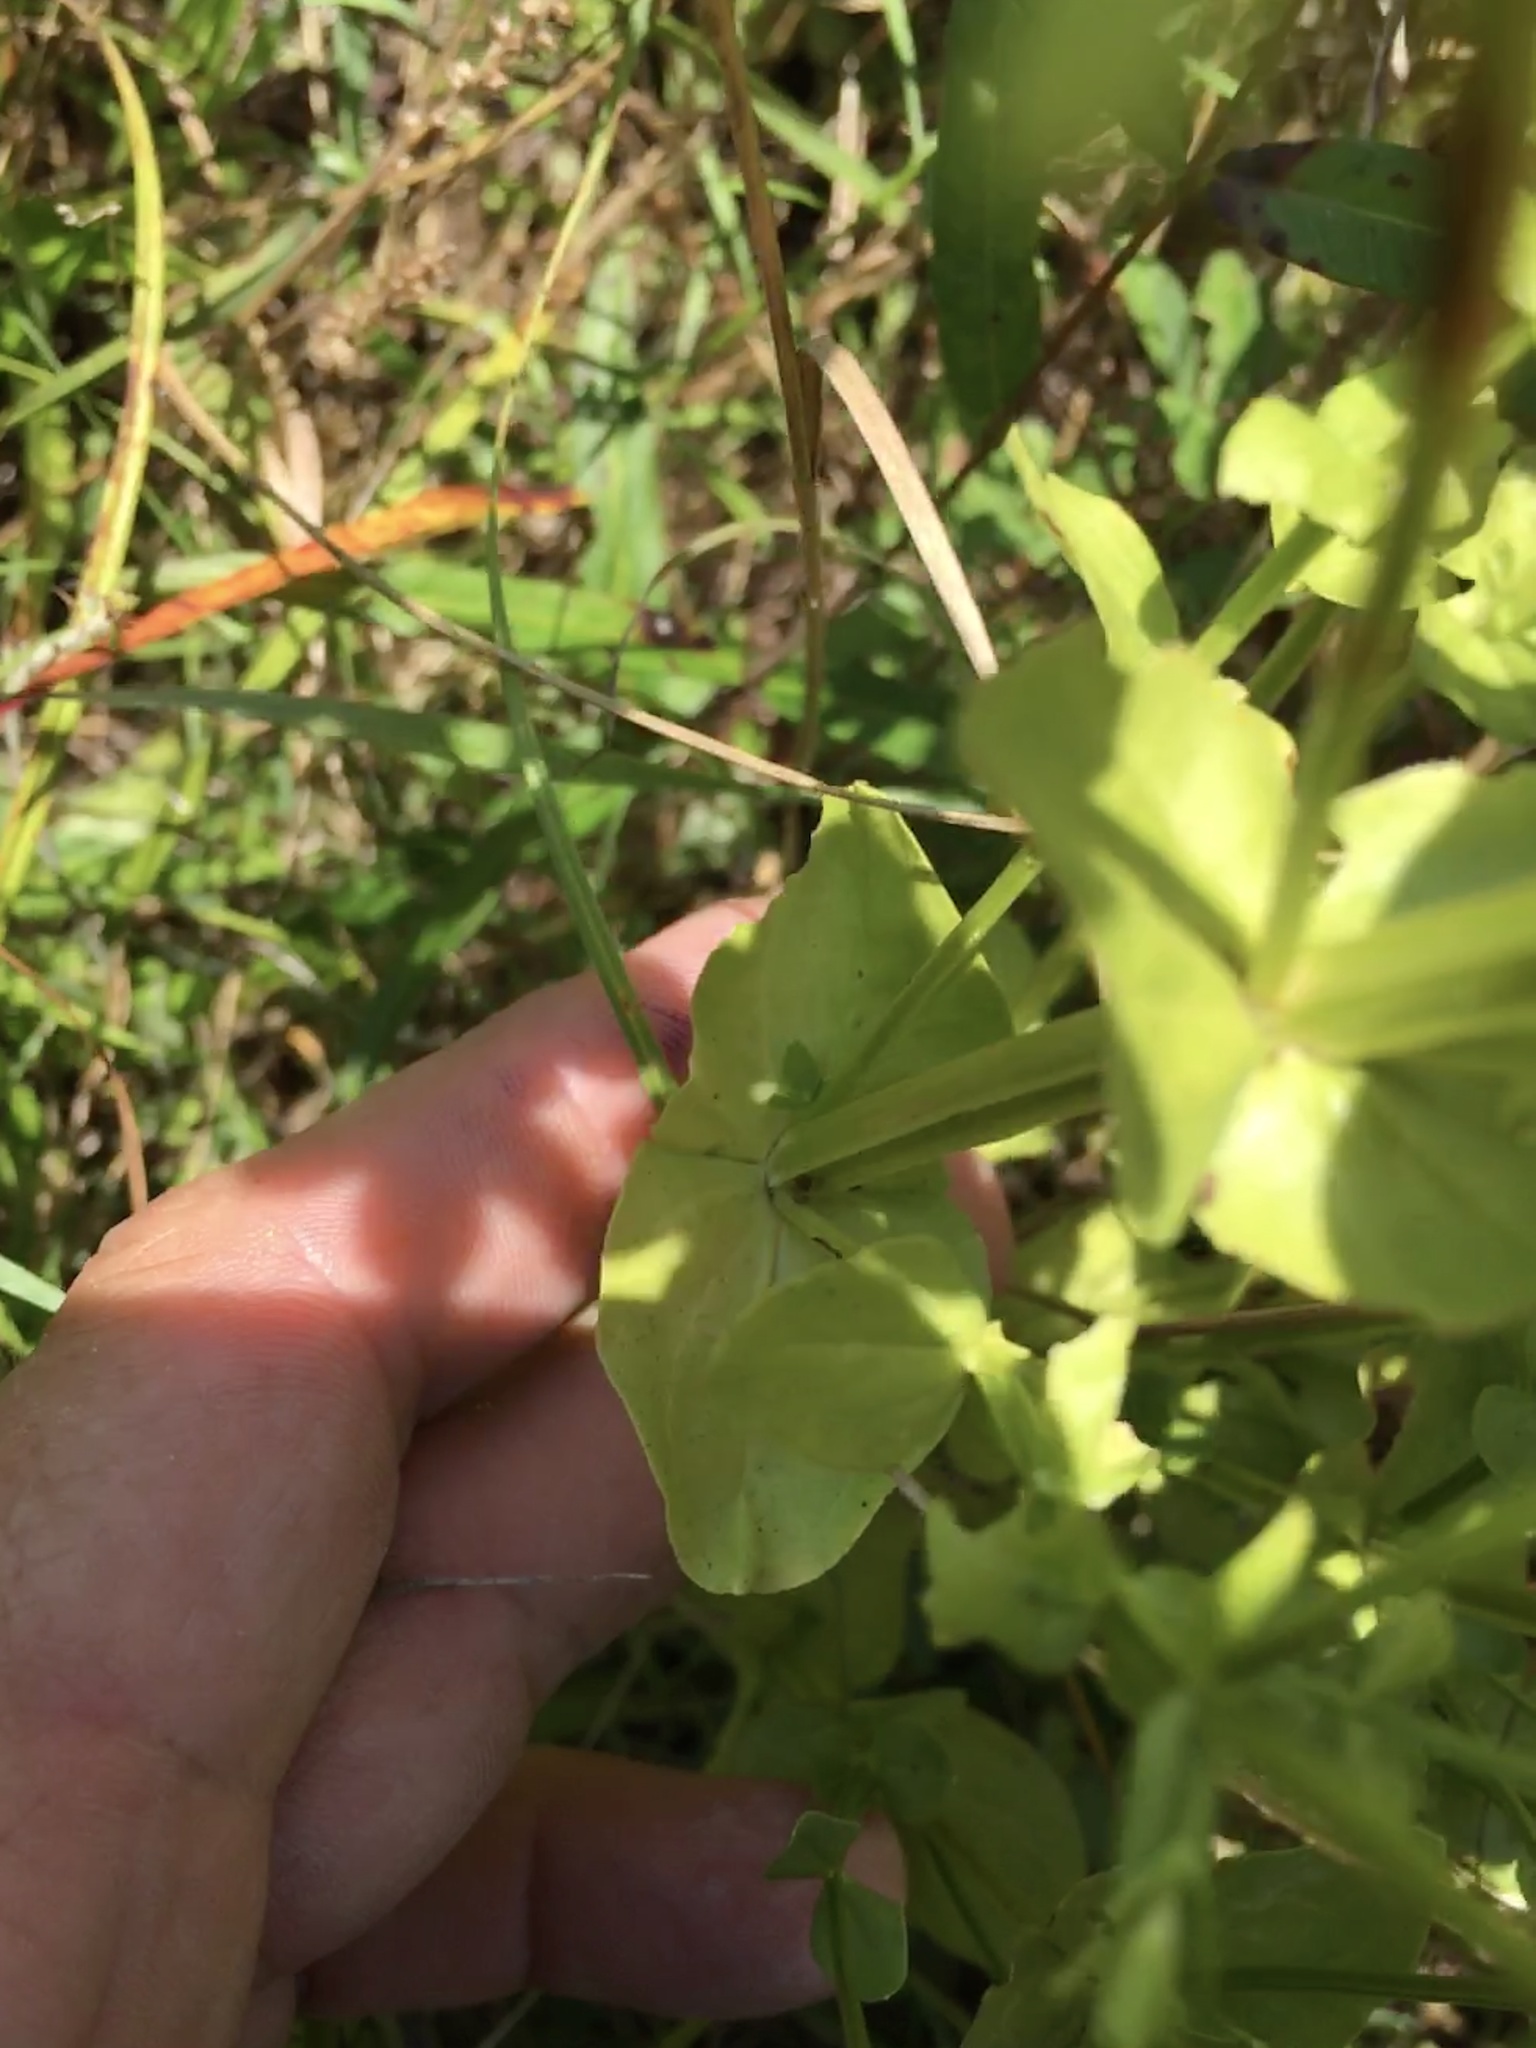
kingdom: Plantae
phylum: Tracheophyta
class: Magnoliopsida
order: Gentianales
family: Gentianaceae
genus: Sabatia
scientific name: Sabatia angularis
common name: Rose-pink
